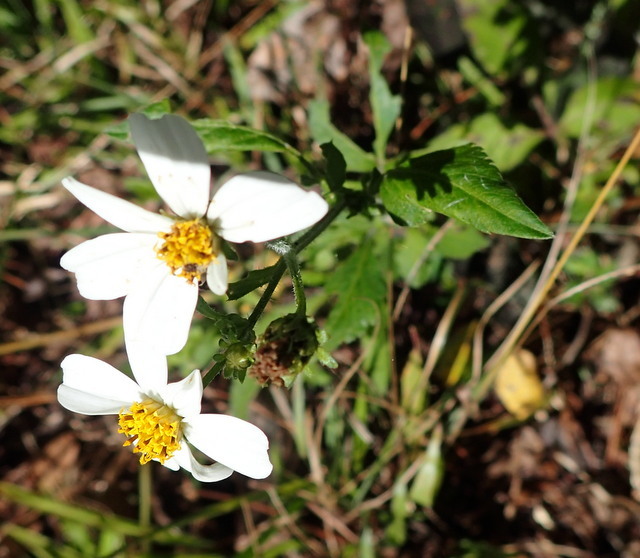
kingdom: Plantae
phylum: Tracheophyta
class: Magnoliopsida
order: Asterales
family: Asteraceae
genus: Bidens
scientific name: Bidens alba
